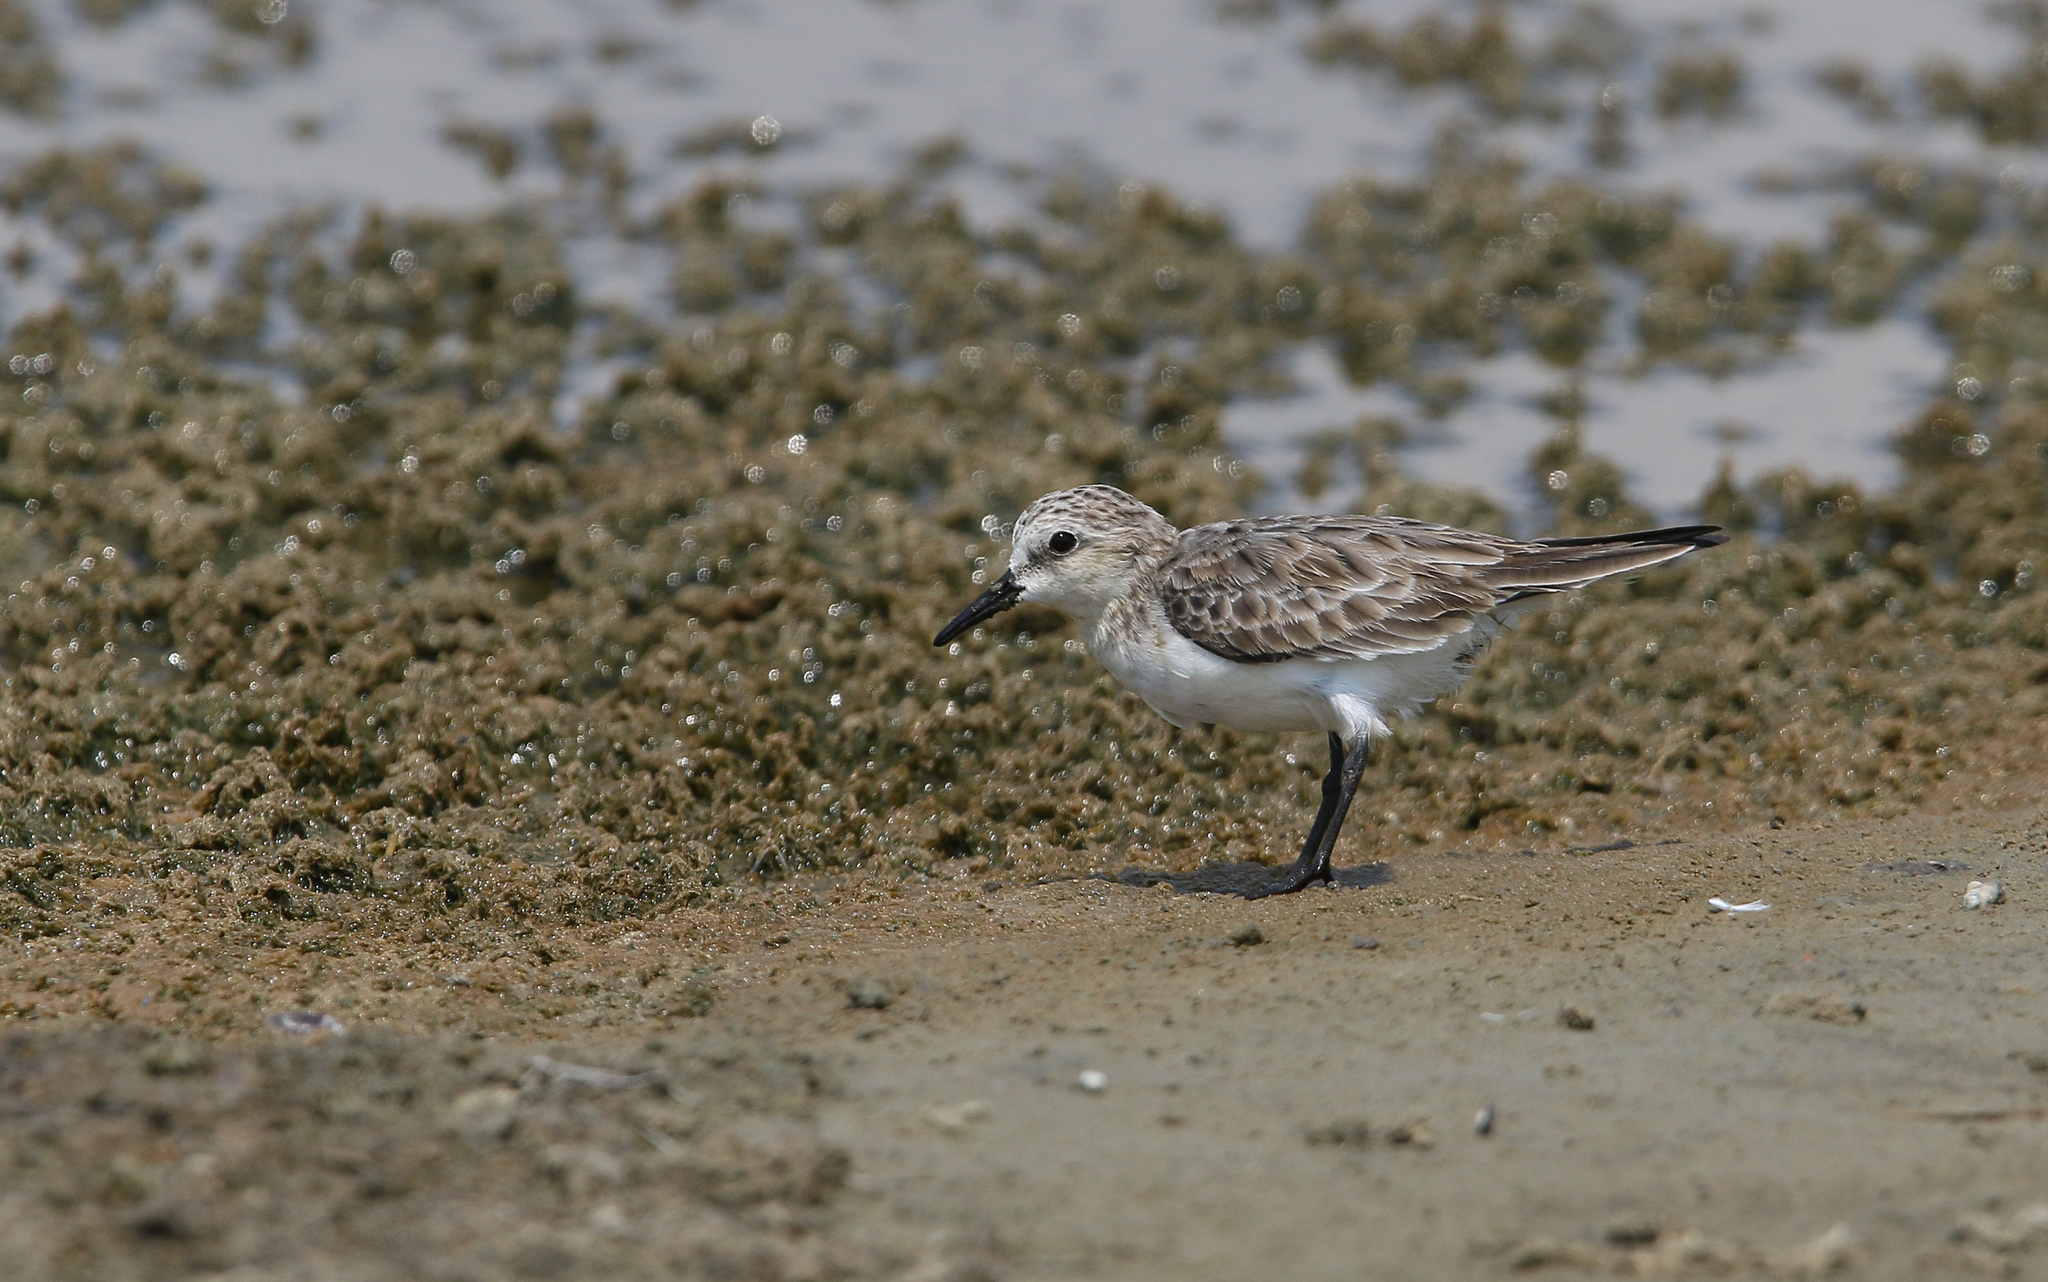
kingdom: Animalia
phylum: Chordata
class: Aves
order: Charadriiformes
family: Scolopacidae
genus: Calidris
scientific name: Calidris ruficollis
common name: Red-necked stint
